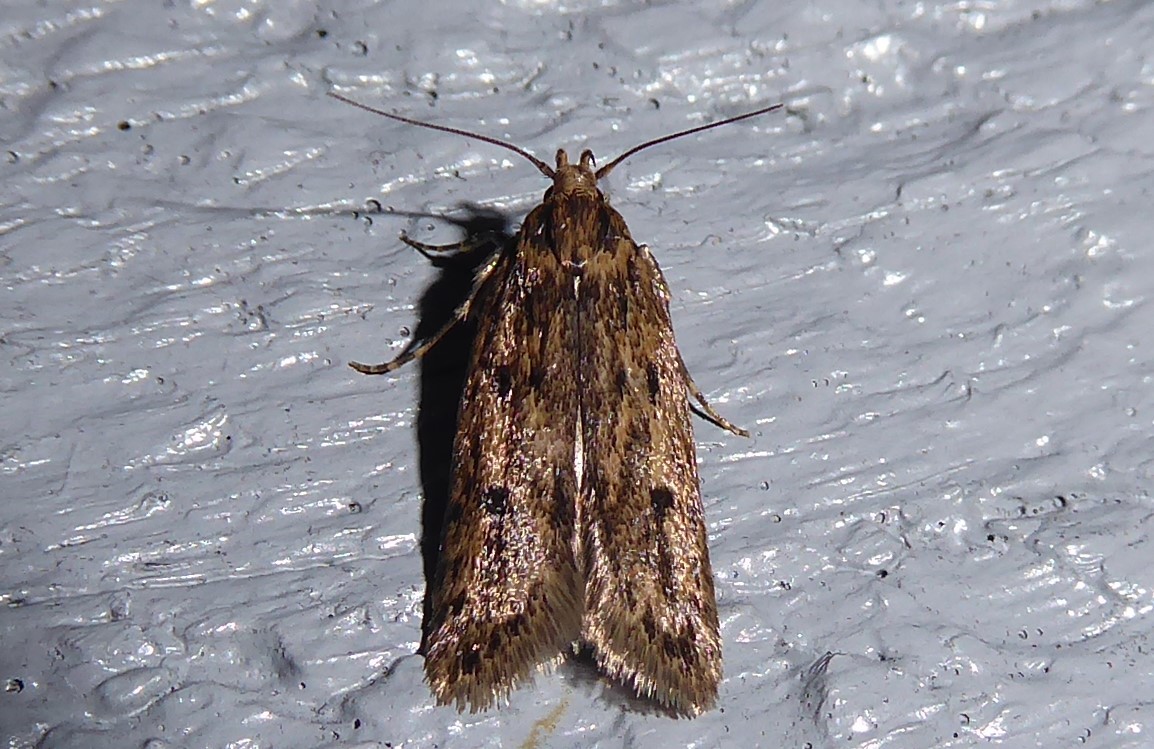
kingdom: Animalia
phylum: Arthropoda
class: Insecta
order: Lepidoptera
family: Oecophoridae
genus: Hofmannophila
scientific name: Hofmannophila pseudospretella
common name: Brown house moth
